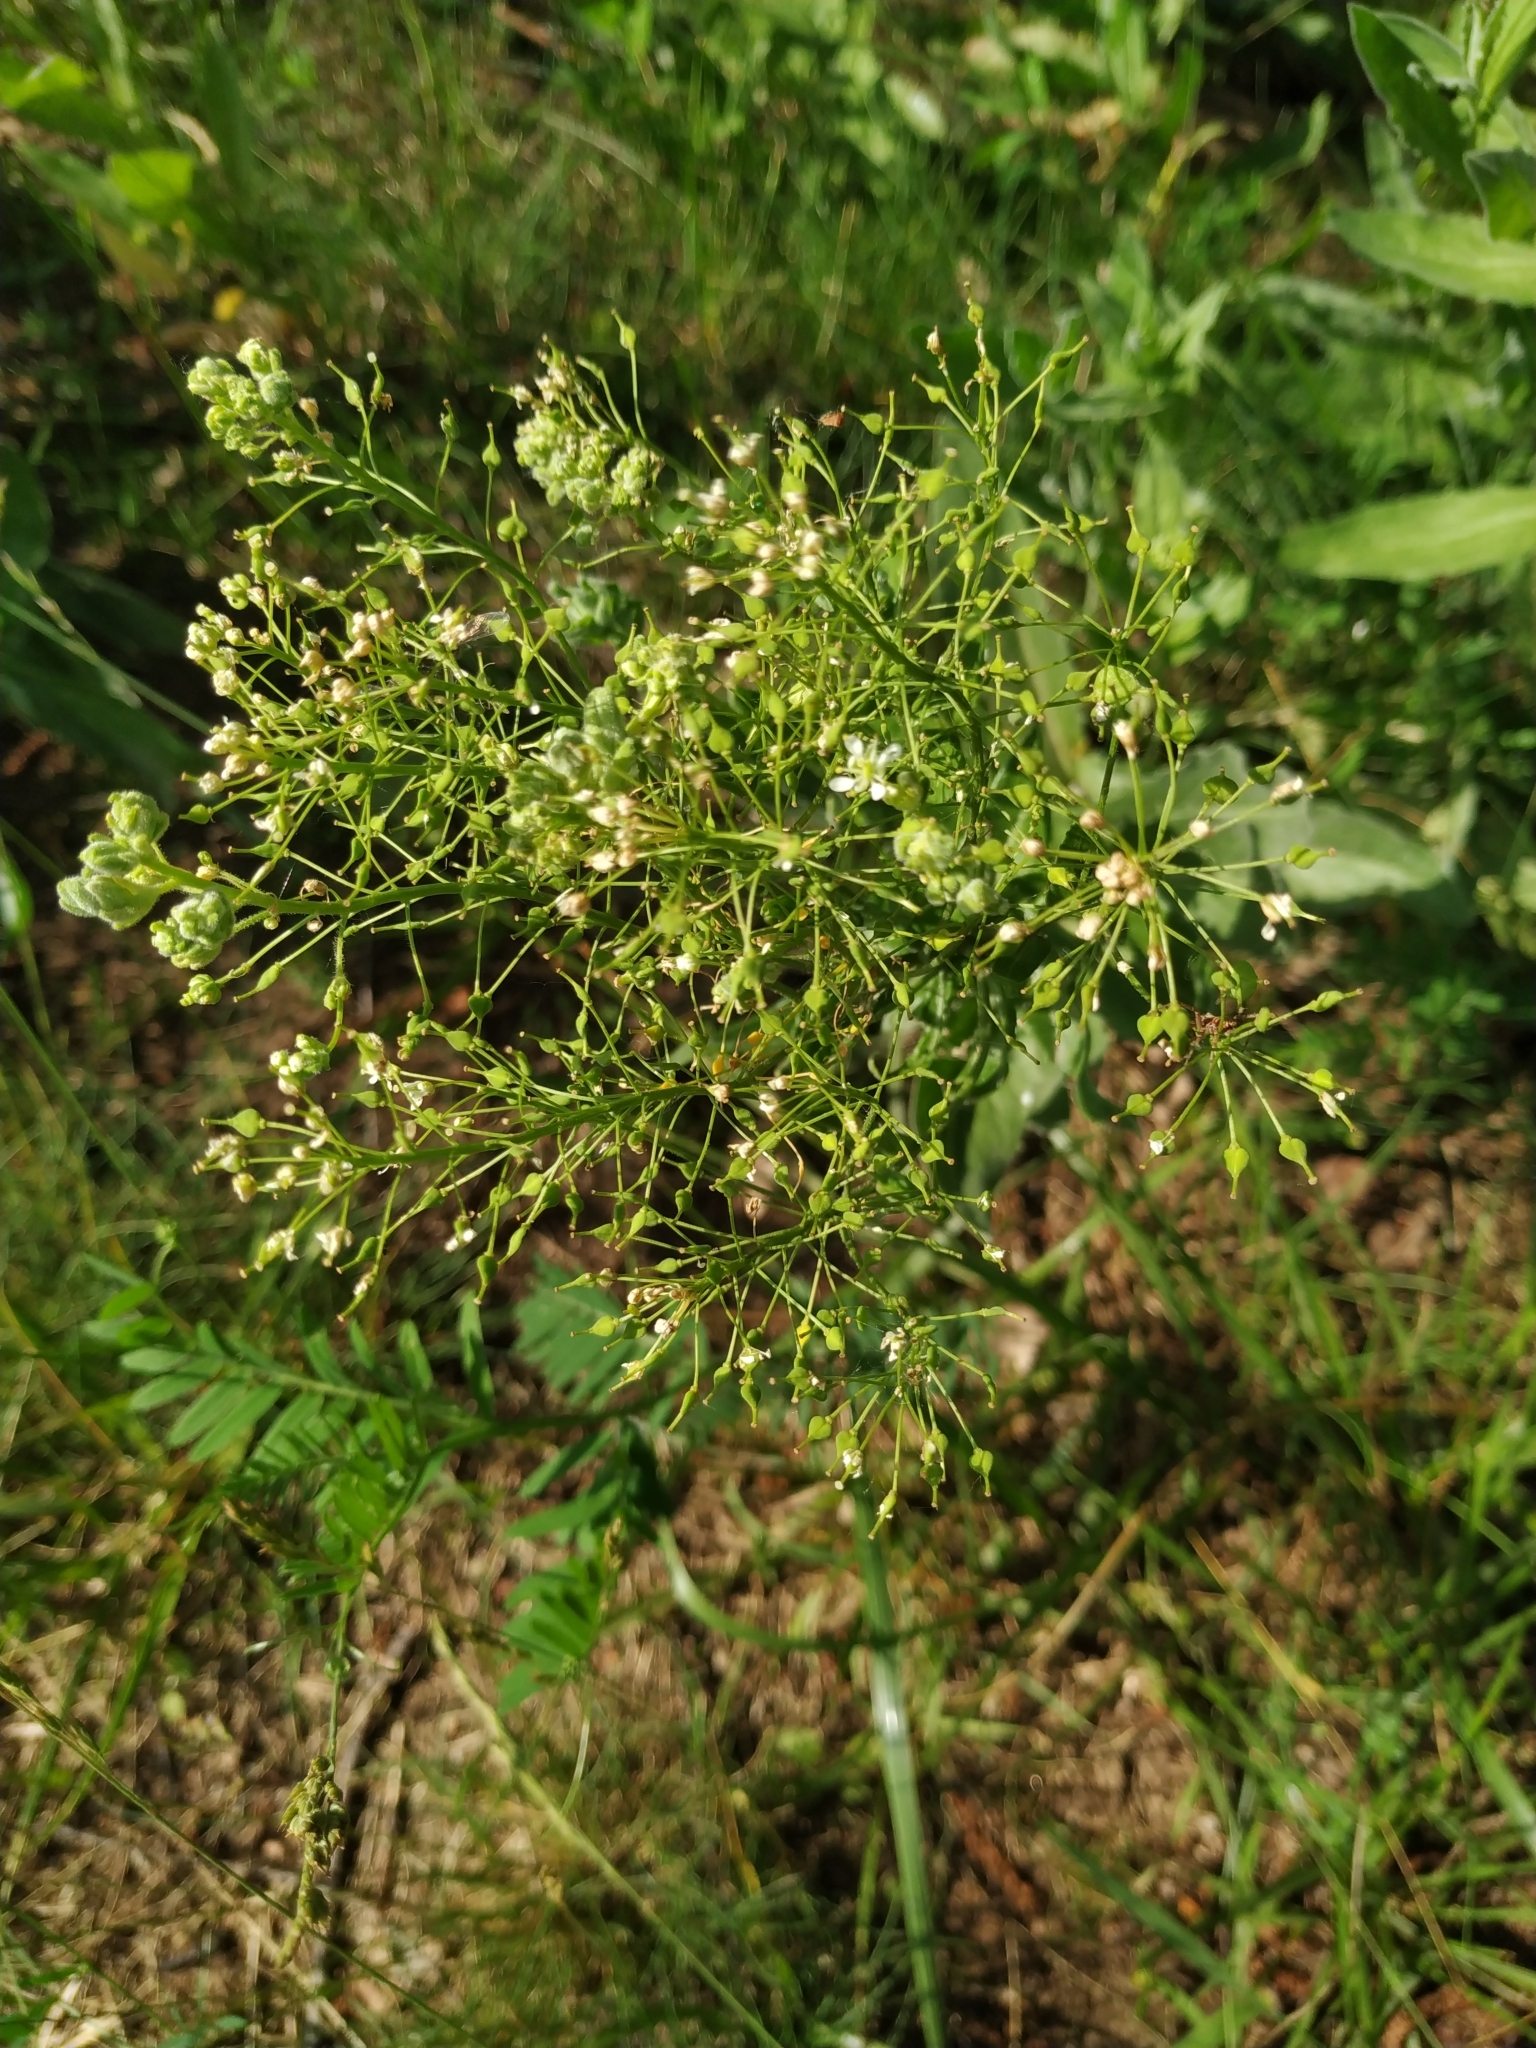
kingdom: Plantae
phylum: Tracheophyta
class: Magnoliopsida
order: Brassicales
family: Brassicaceae
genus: Lepidium
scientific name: Lepidium draba
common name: Hoary cress
